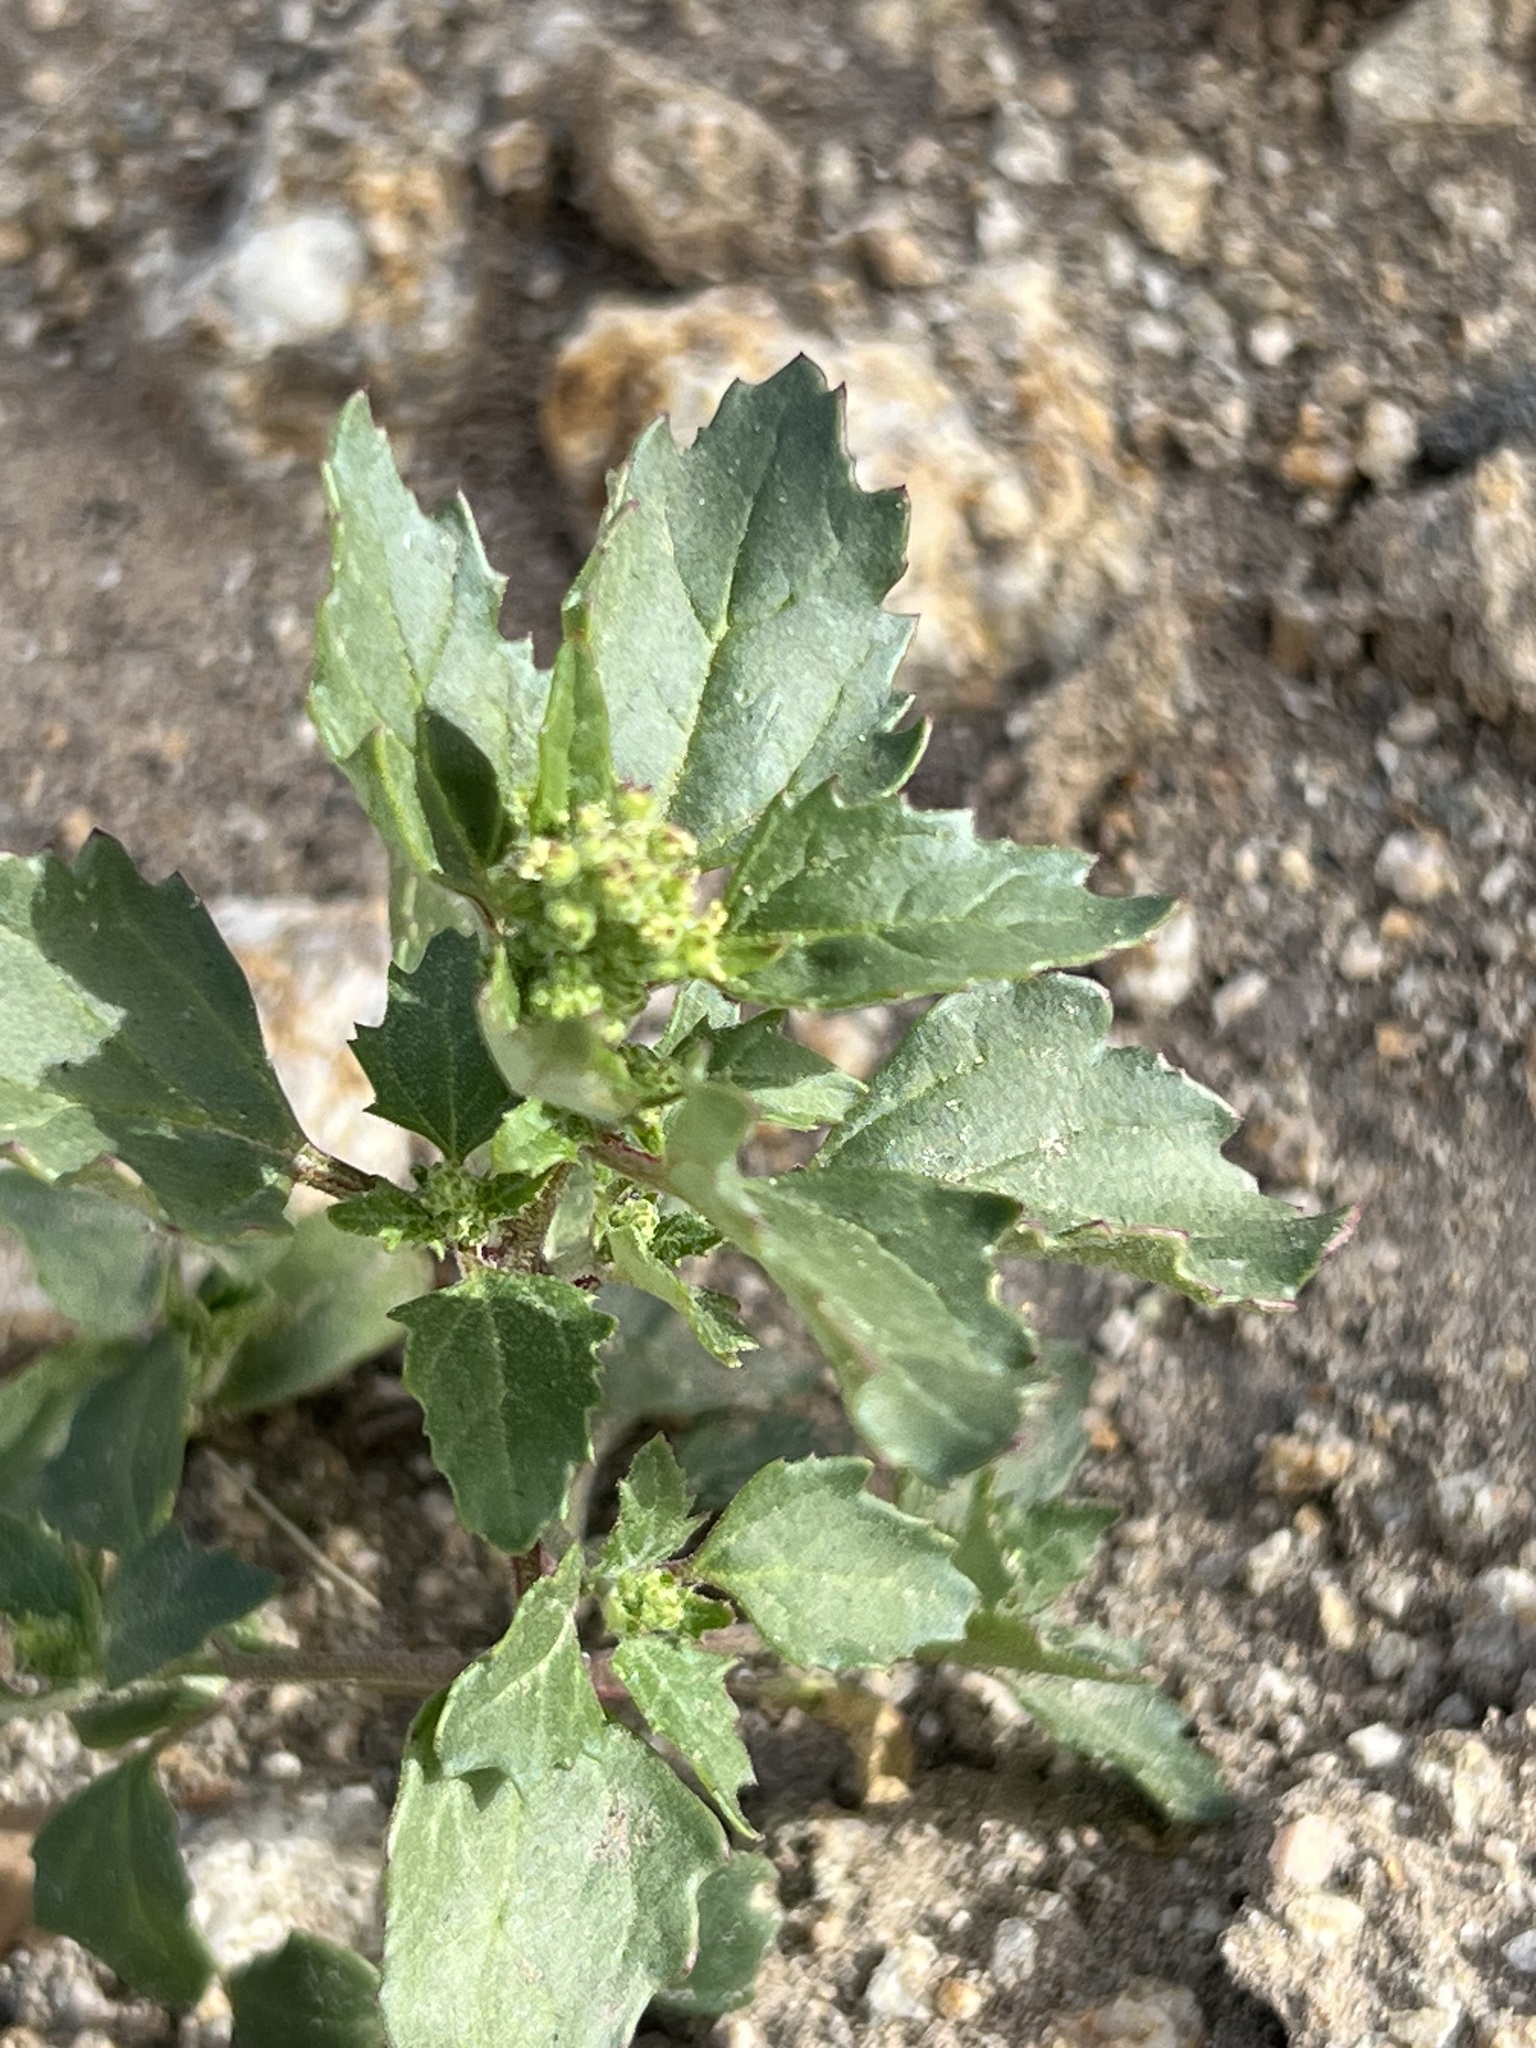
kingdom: Plantae
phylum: Tracheophyta
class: Magnoliopsida
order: Caryophyllales
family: Amaranthaceae
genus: Chenopodiastrum
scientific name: Chenopodiastrum murale
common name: Sowbane
